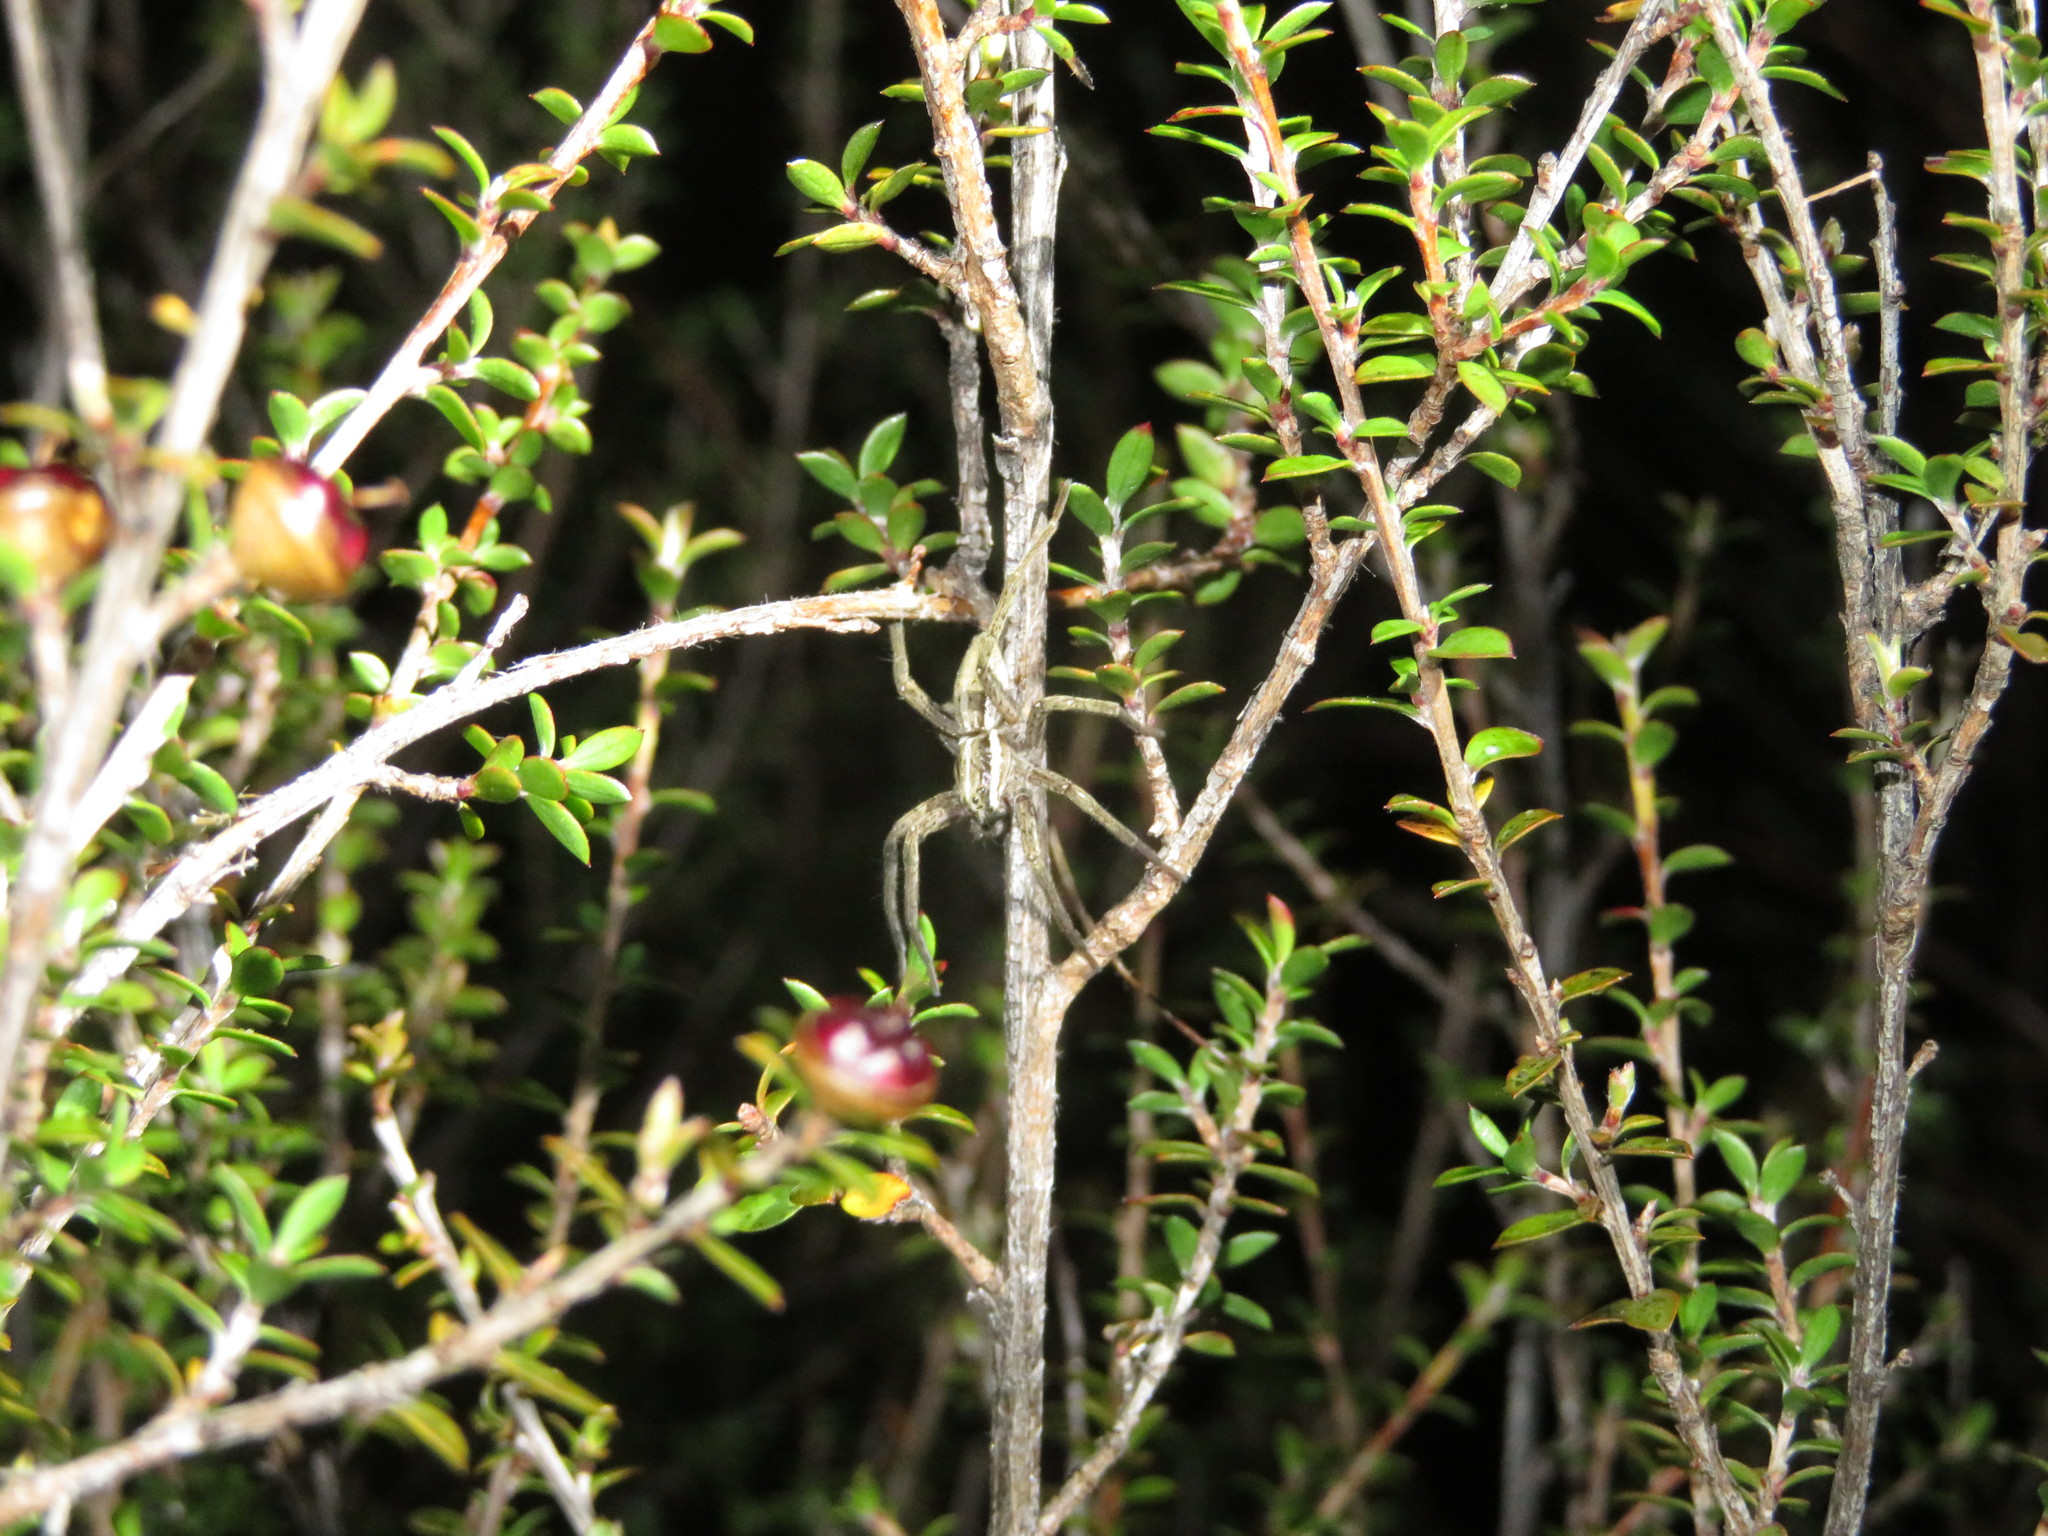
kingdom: Animalia
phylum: Arthropoda
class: Arachnida
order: Araneae
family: Pisauridae
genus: Dolomedes
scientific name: Dolomedes minor
